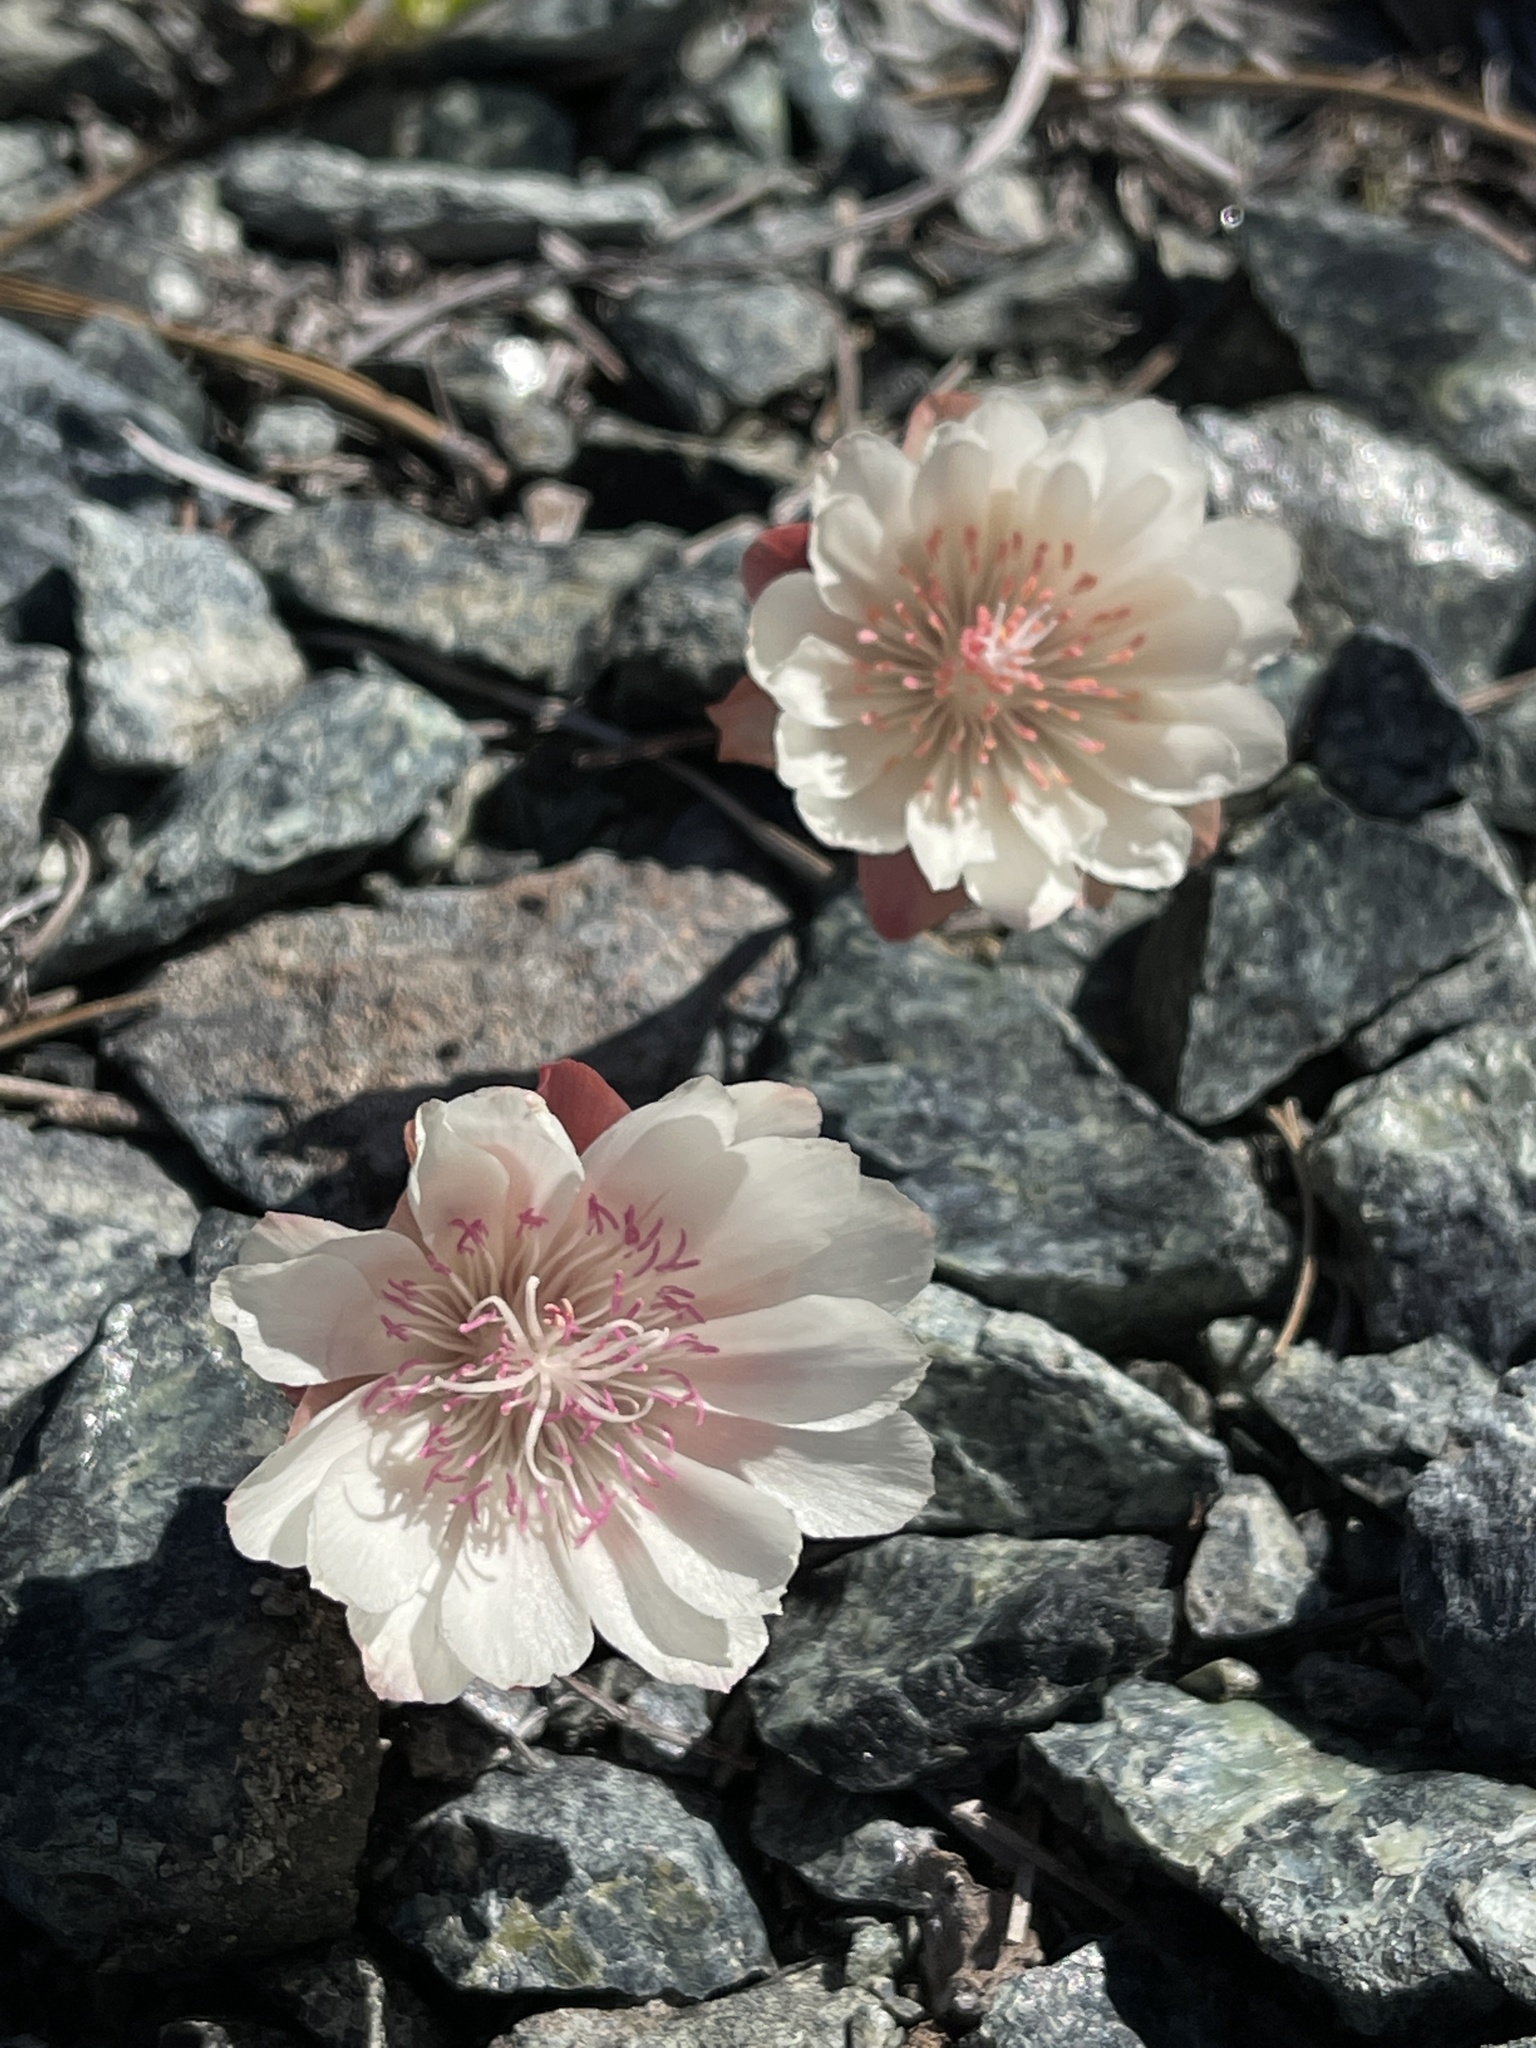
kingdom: Plantae
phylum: Tracheophyta
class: Magnoliopsida
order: Caryophyllales
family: Montiaceae
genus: Lewisia
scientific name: Lewisia rediviva
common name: Bitter-root
